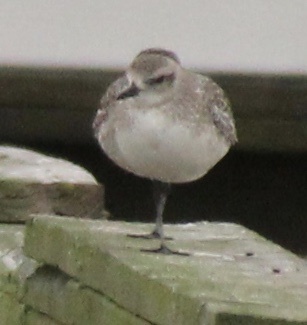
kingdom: Animalia
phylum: Chordata
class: Aves
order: Charadriiformes
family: Charadriidae
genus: Pluvialis
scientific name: Pluvialis squatarola
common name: Grey plover
